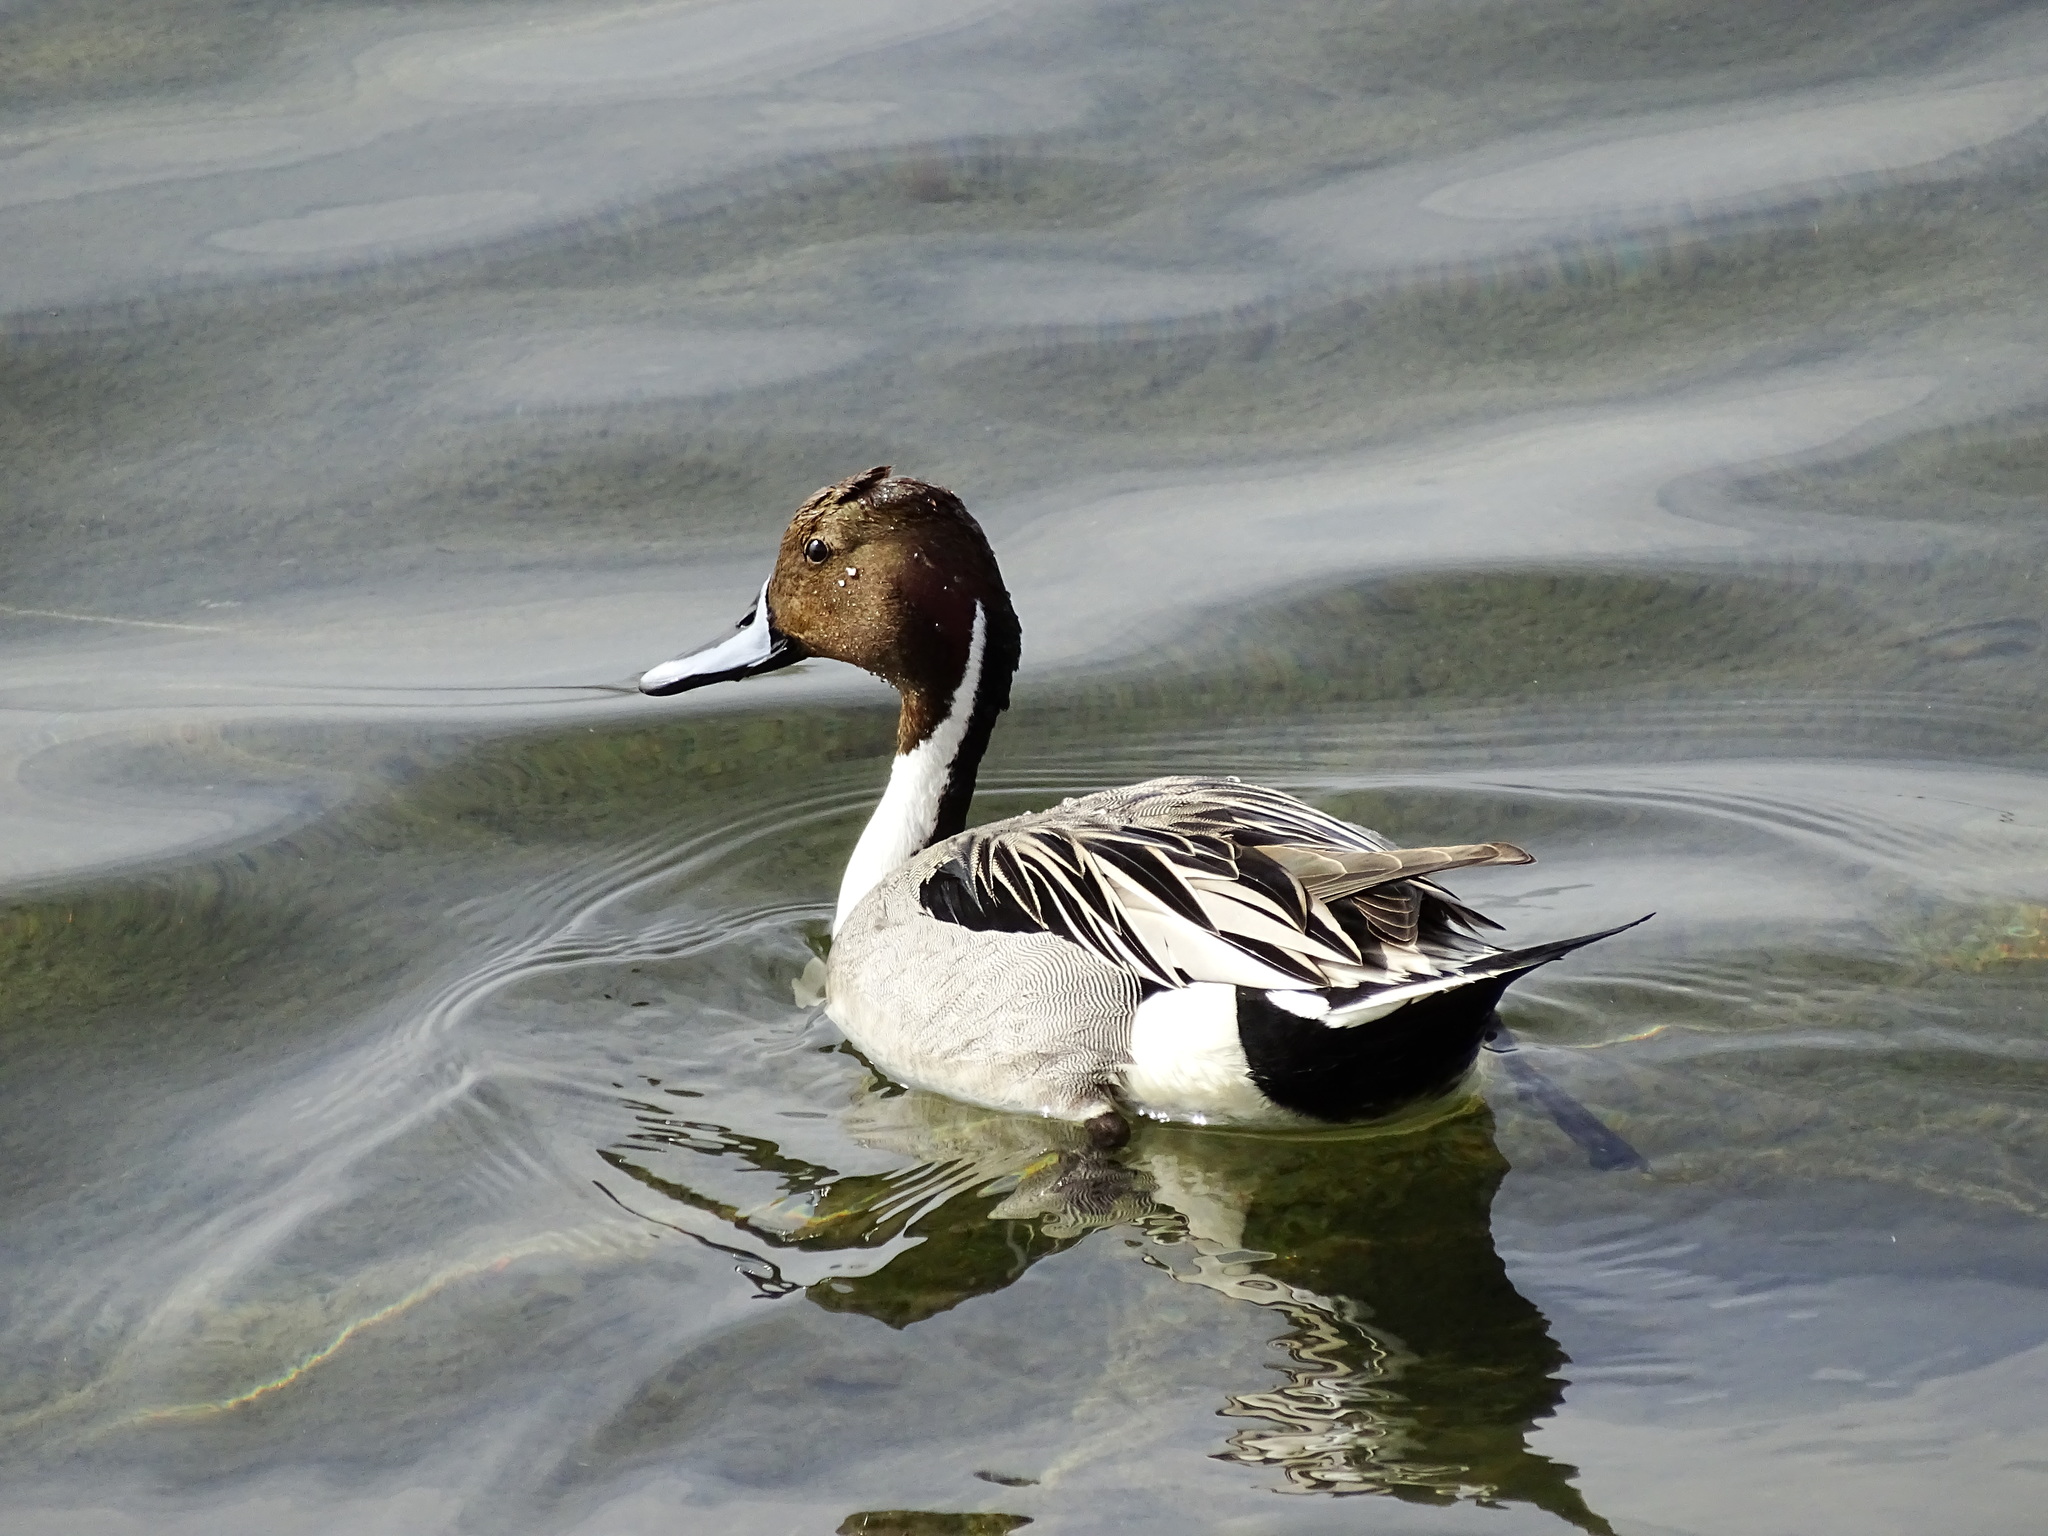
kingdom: Animalia
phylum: Chordata
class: Aves
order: Anseriformes
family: Anatidae
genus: Anas
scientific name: Anas acuta
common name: Northern pintail
